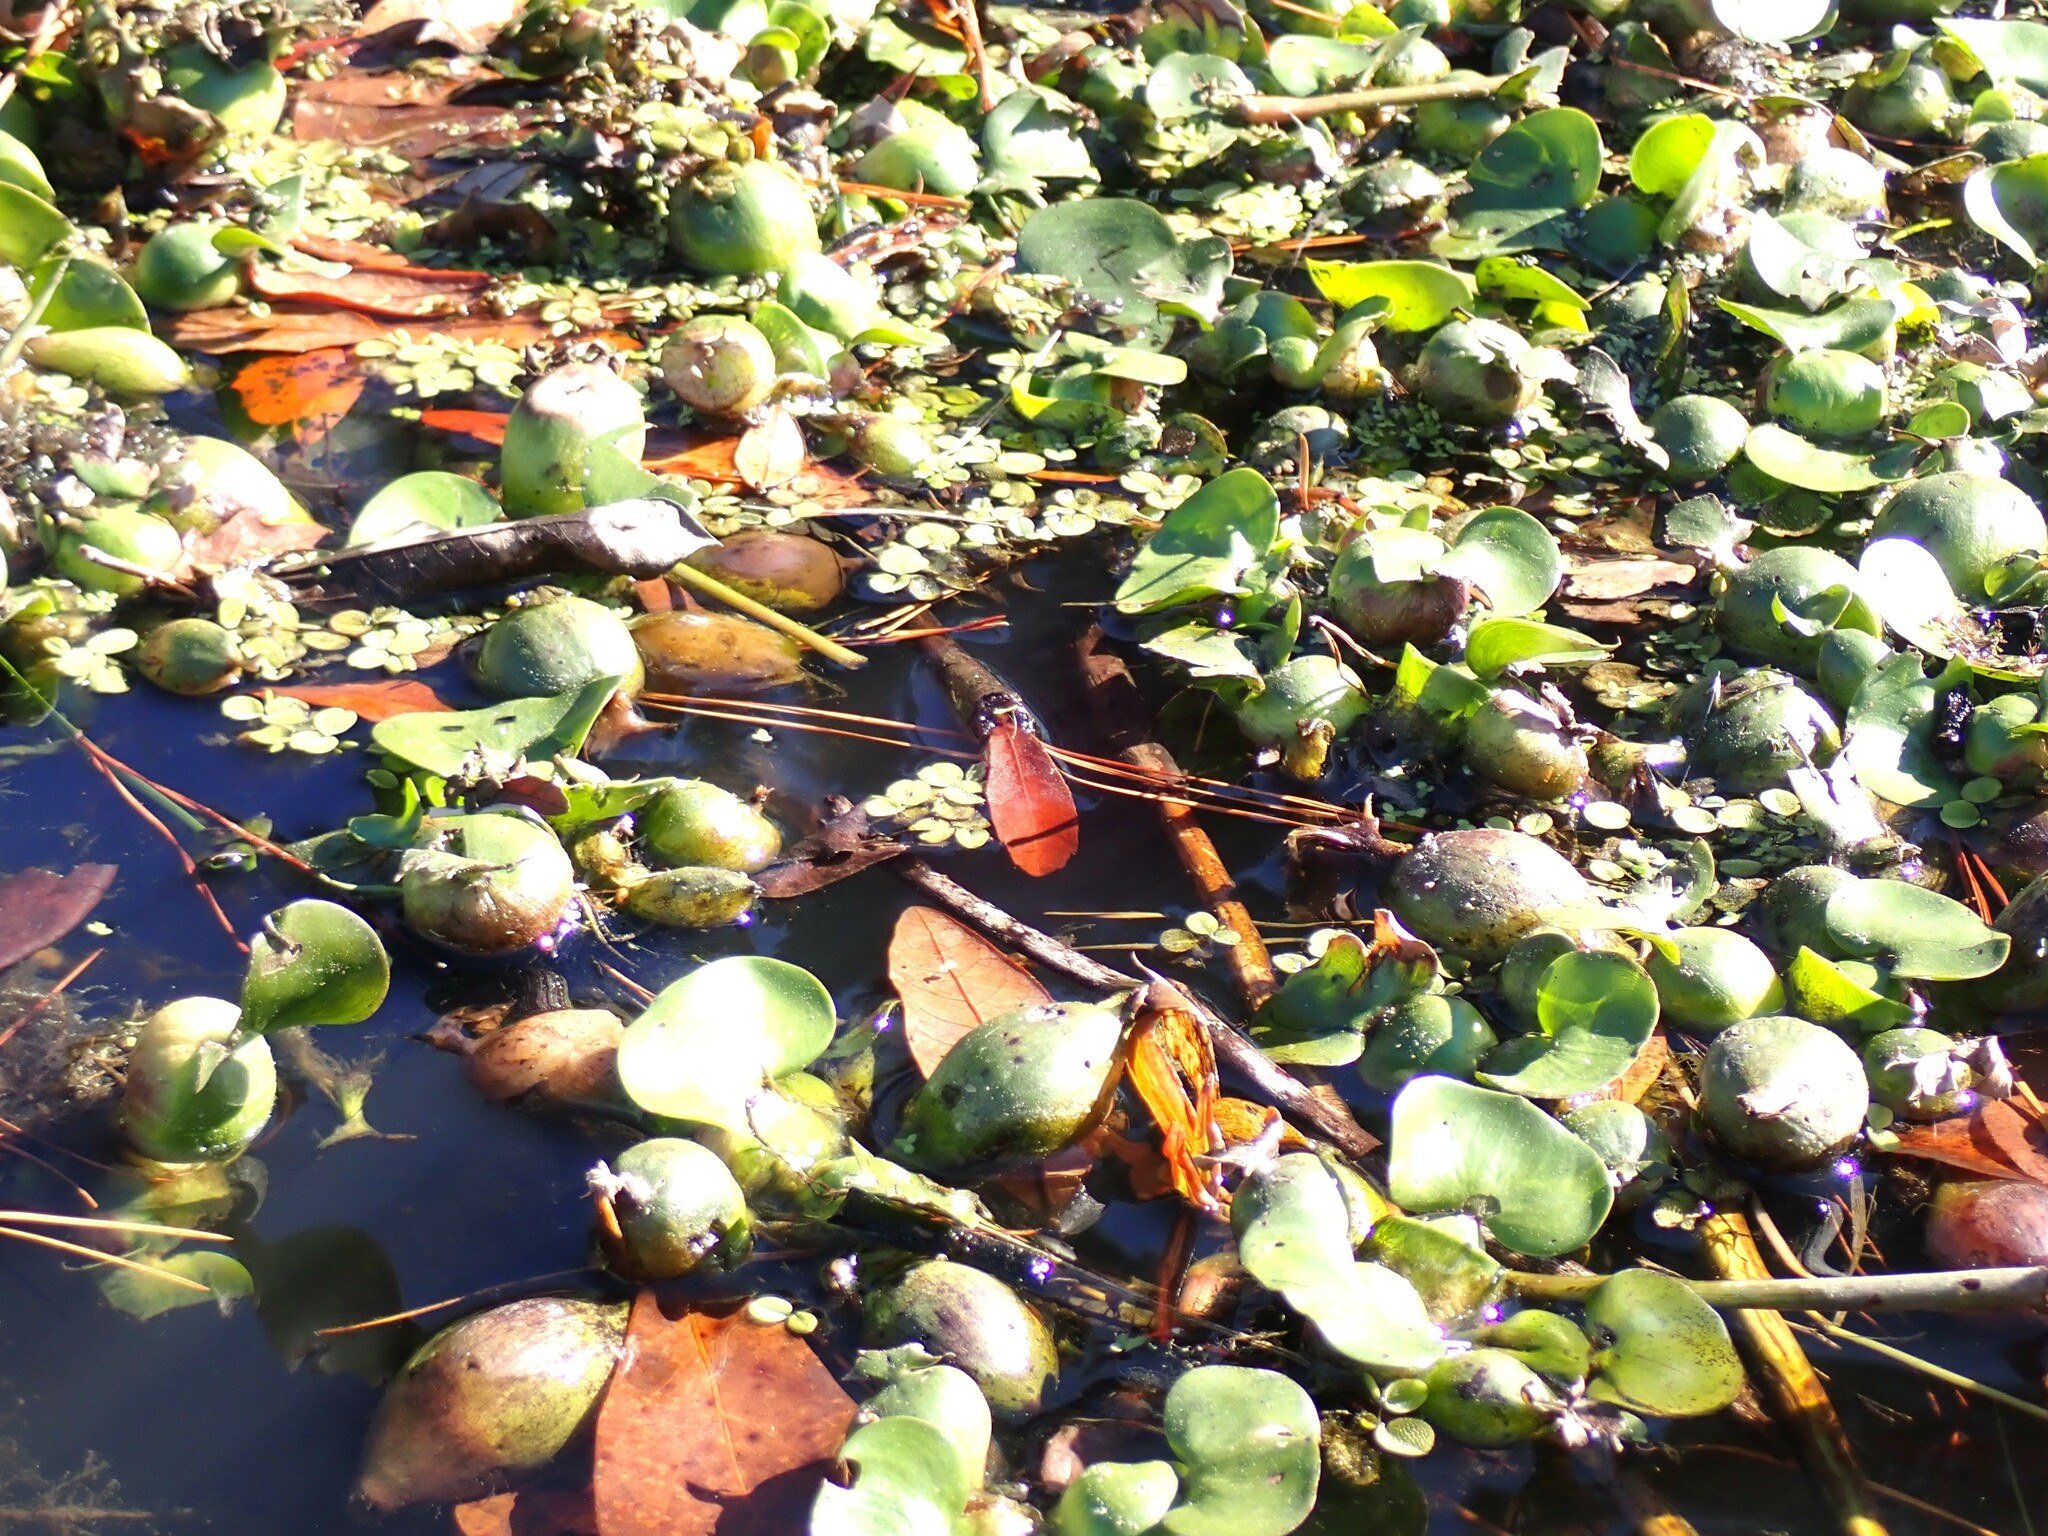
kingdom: Plantae
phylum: Tracheophyta
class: Liliopsida
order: Commelinales
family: Pontederiaceae
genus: Pontederia
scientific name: Pontederia crassipes
